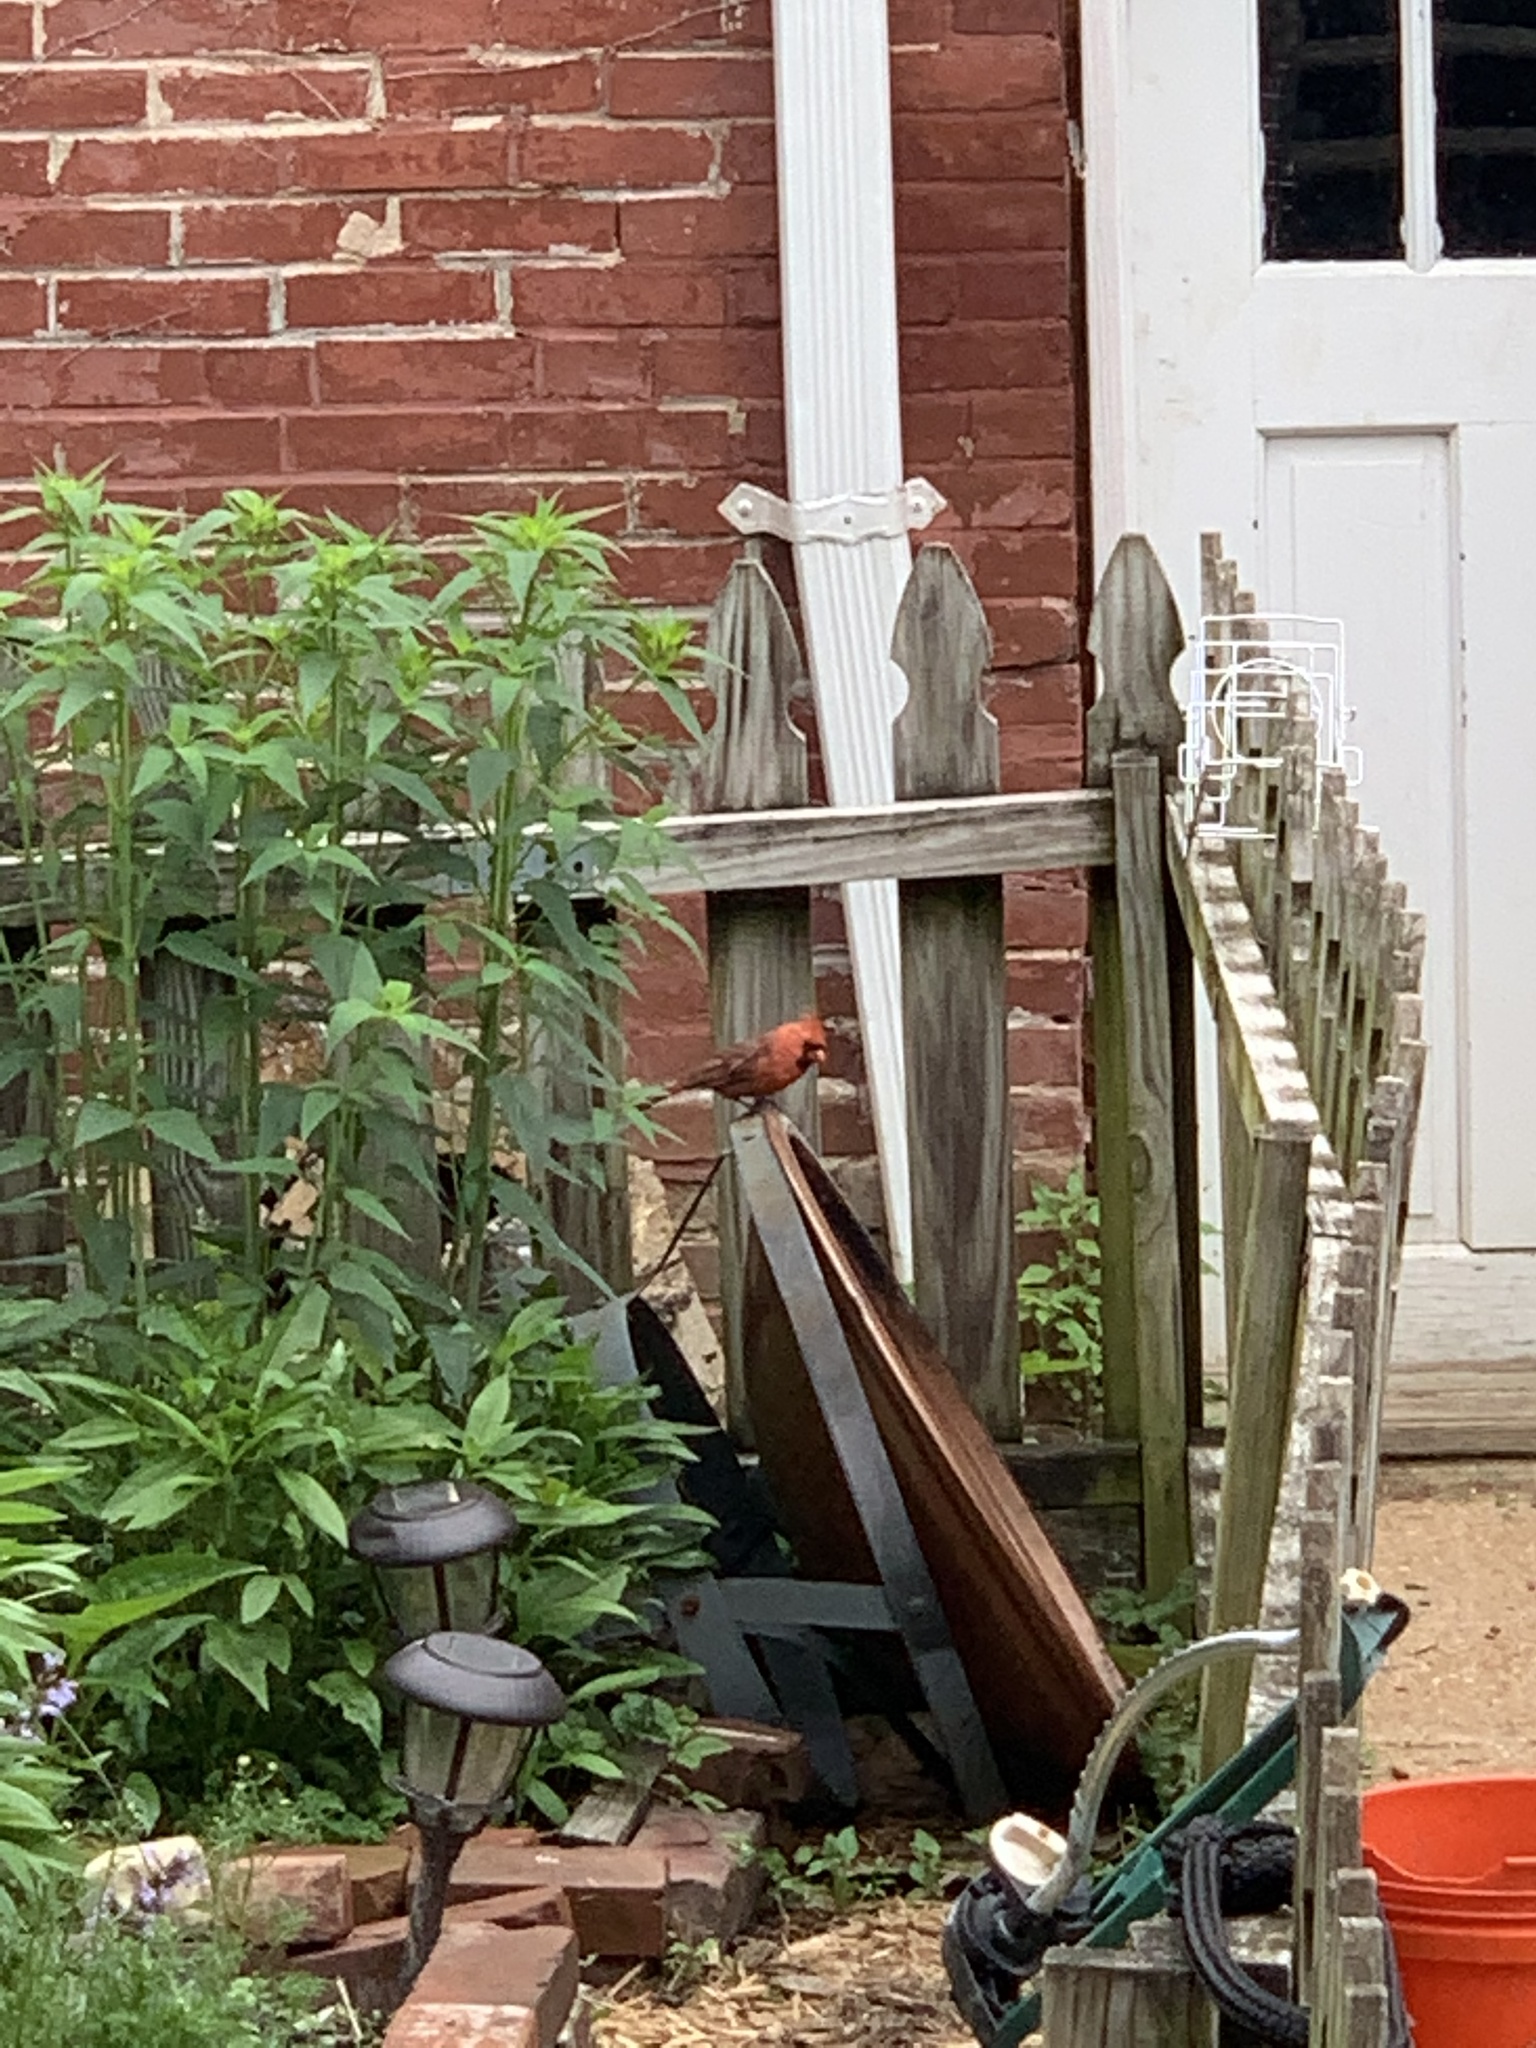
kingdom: Animalia
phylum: Chordata
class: Aves
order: Passeriformes
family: Cardinalidae
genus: Cardinalis
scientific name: Cardinalis cardinalis
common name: Northern cardinal
